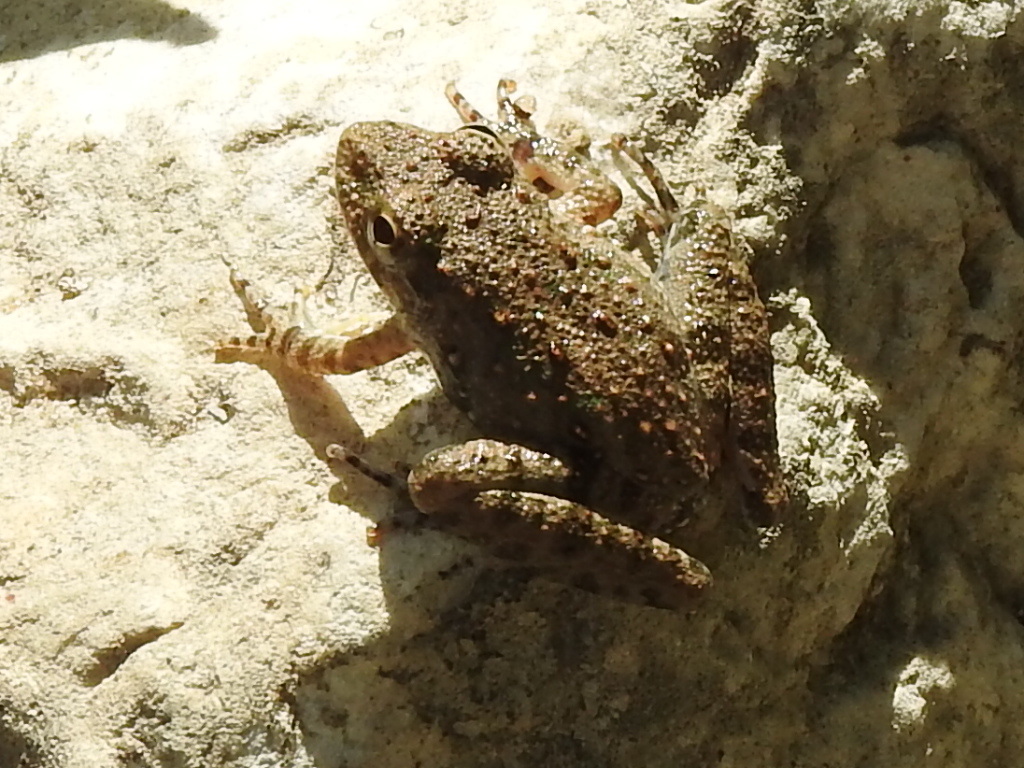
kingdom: Animalia
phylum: Chordata
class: Amphibia
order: Anura
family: Hylidae
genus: Acris
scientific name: Acris blanchardi
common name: Blanchard's cricket frog
